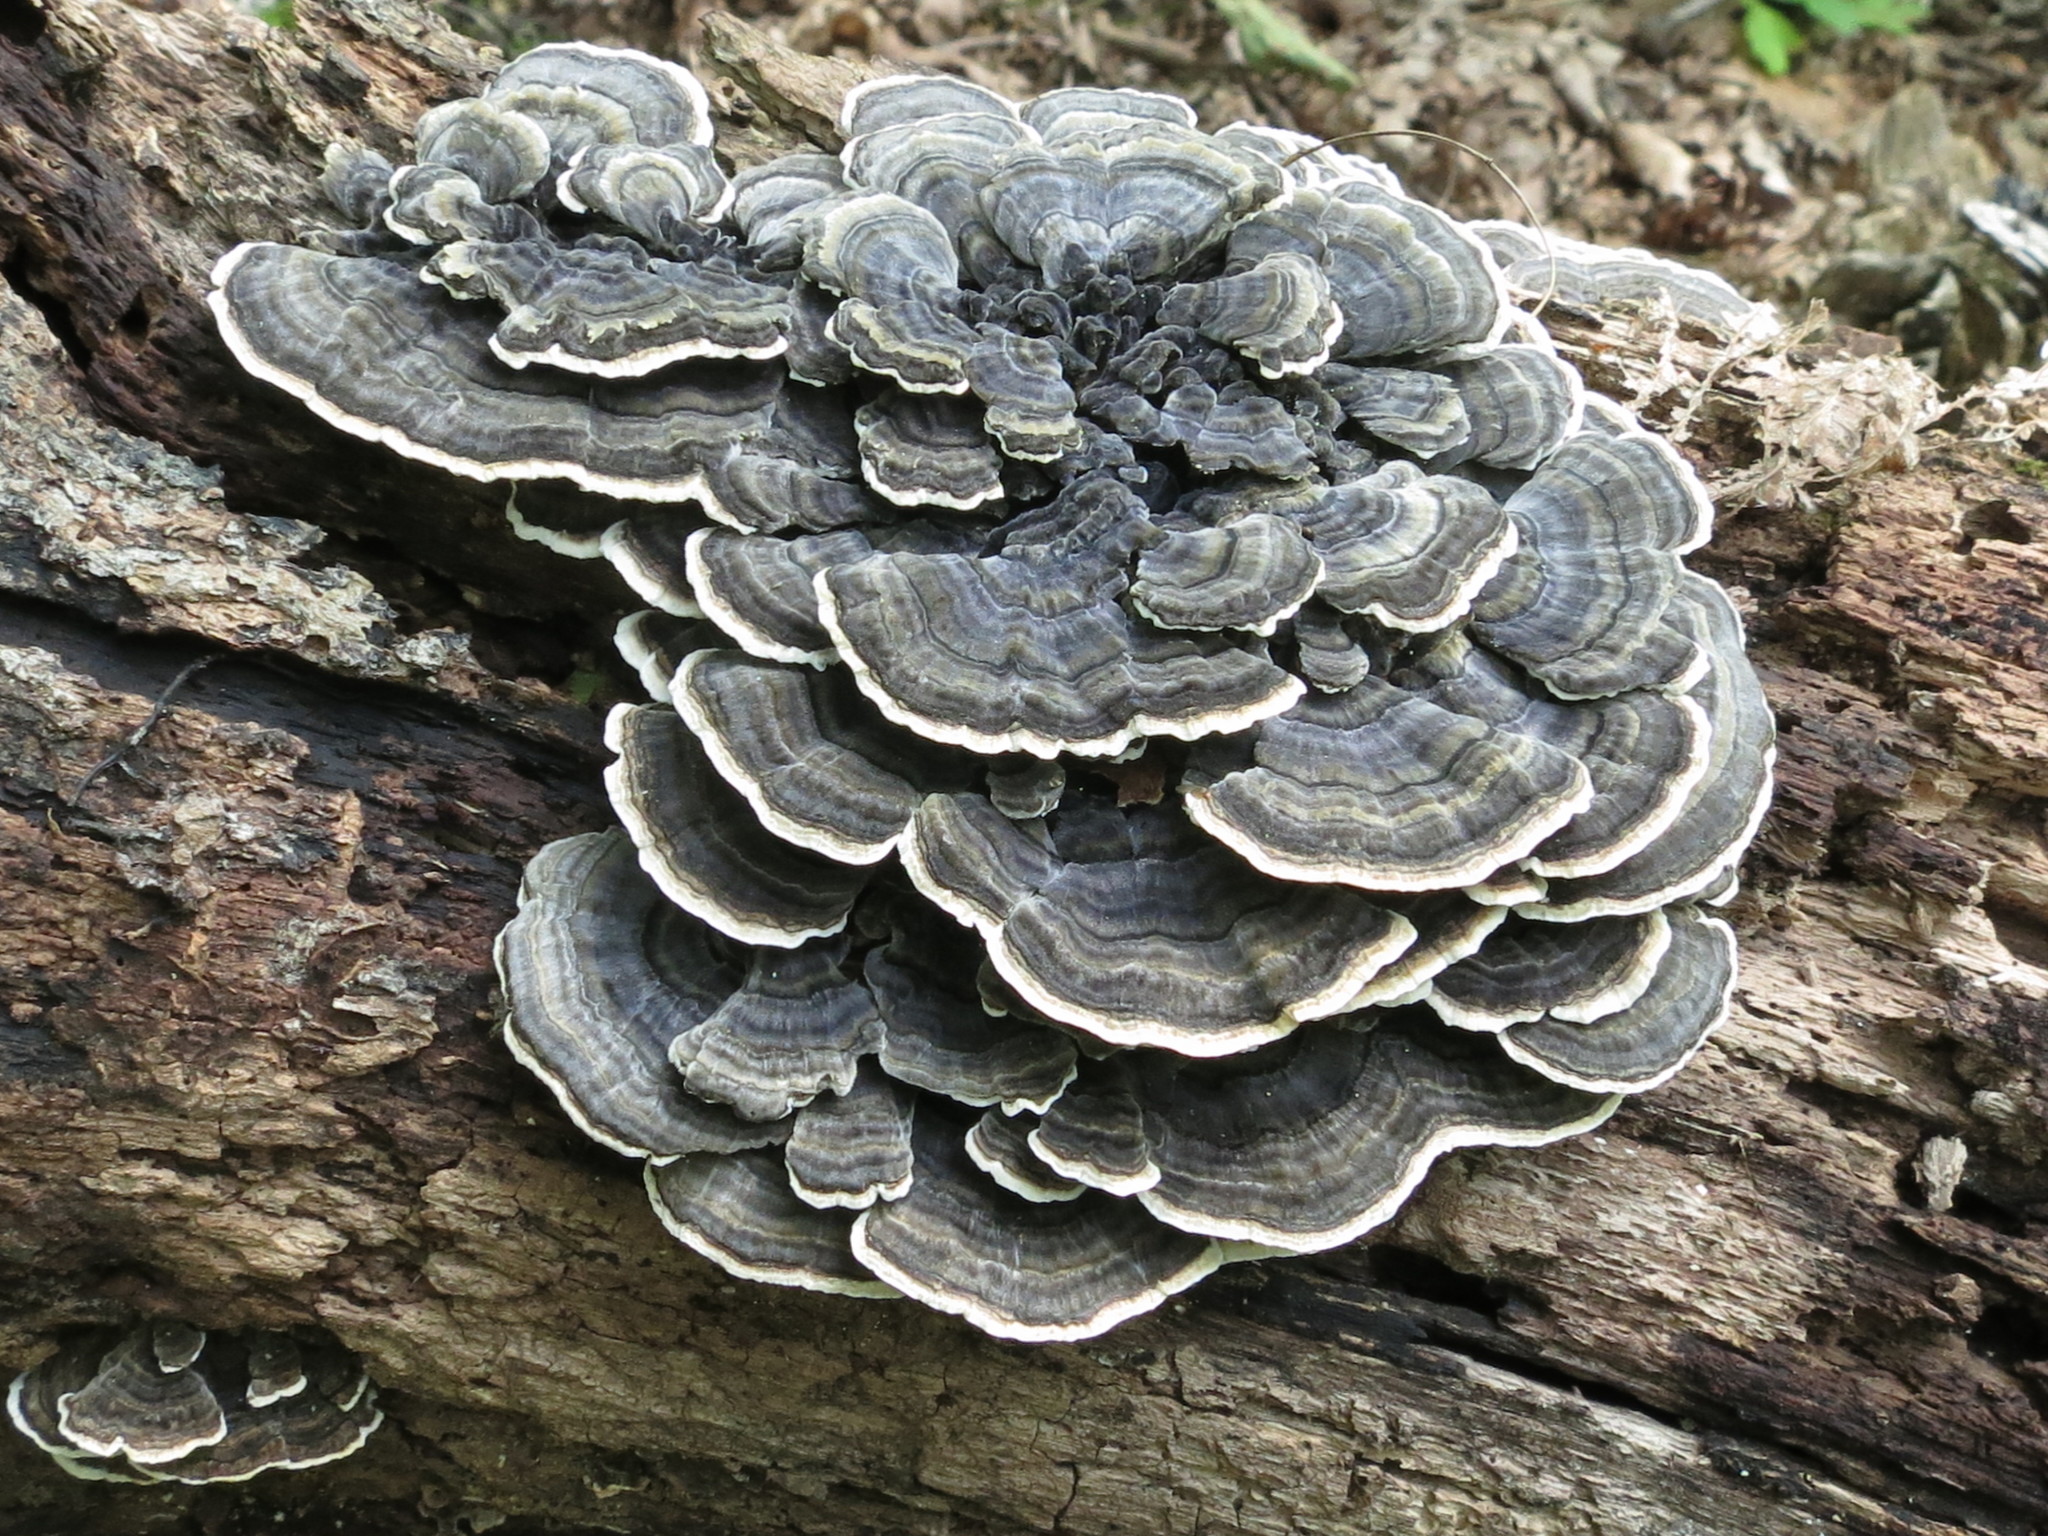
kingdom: Fungi
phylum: Basidiomycota
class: Agaricomycetes
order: Polyporales
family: Polyporaceae
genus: Trametes
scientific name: Trametes versicolor
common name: Turkeytail
